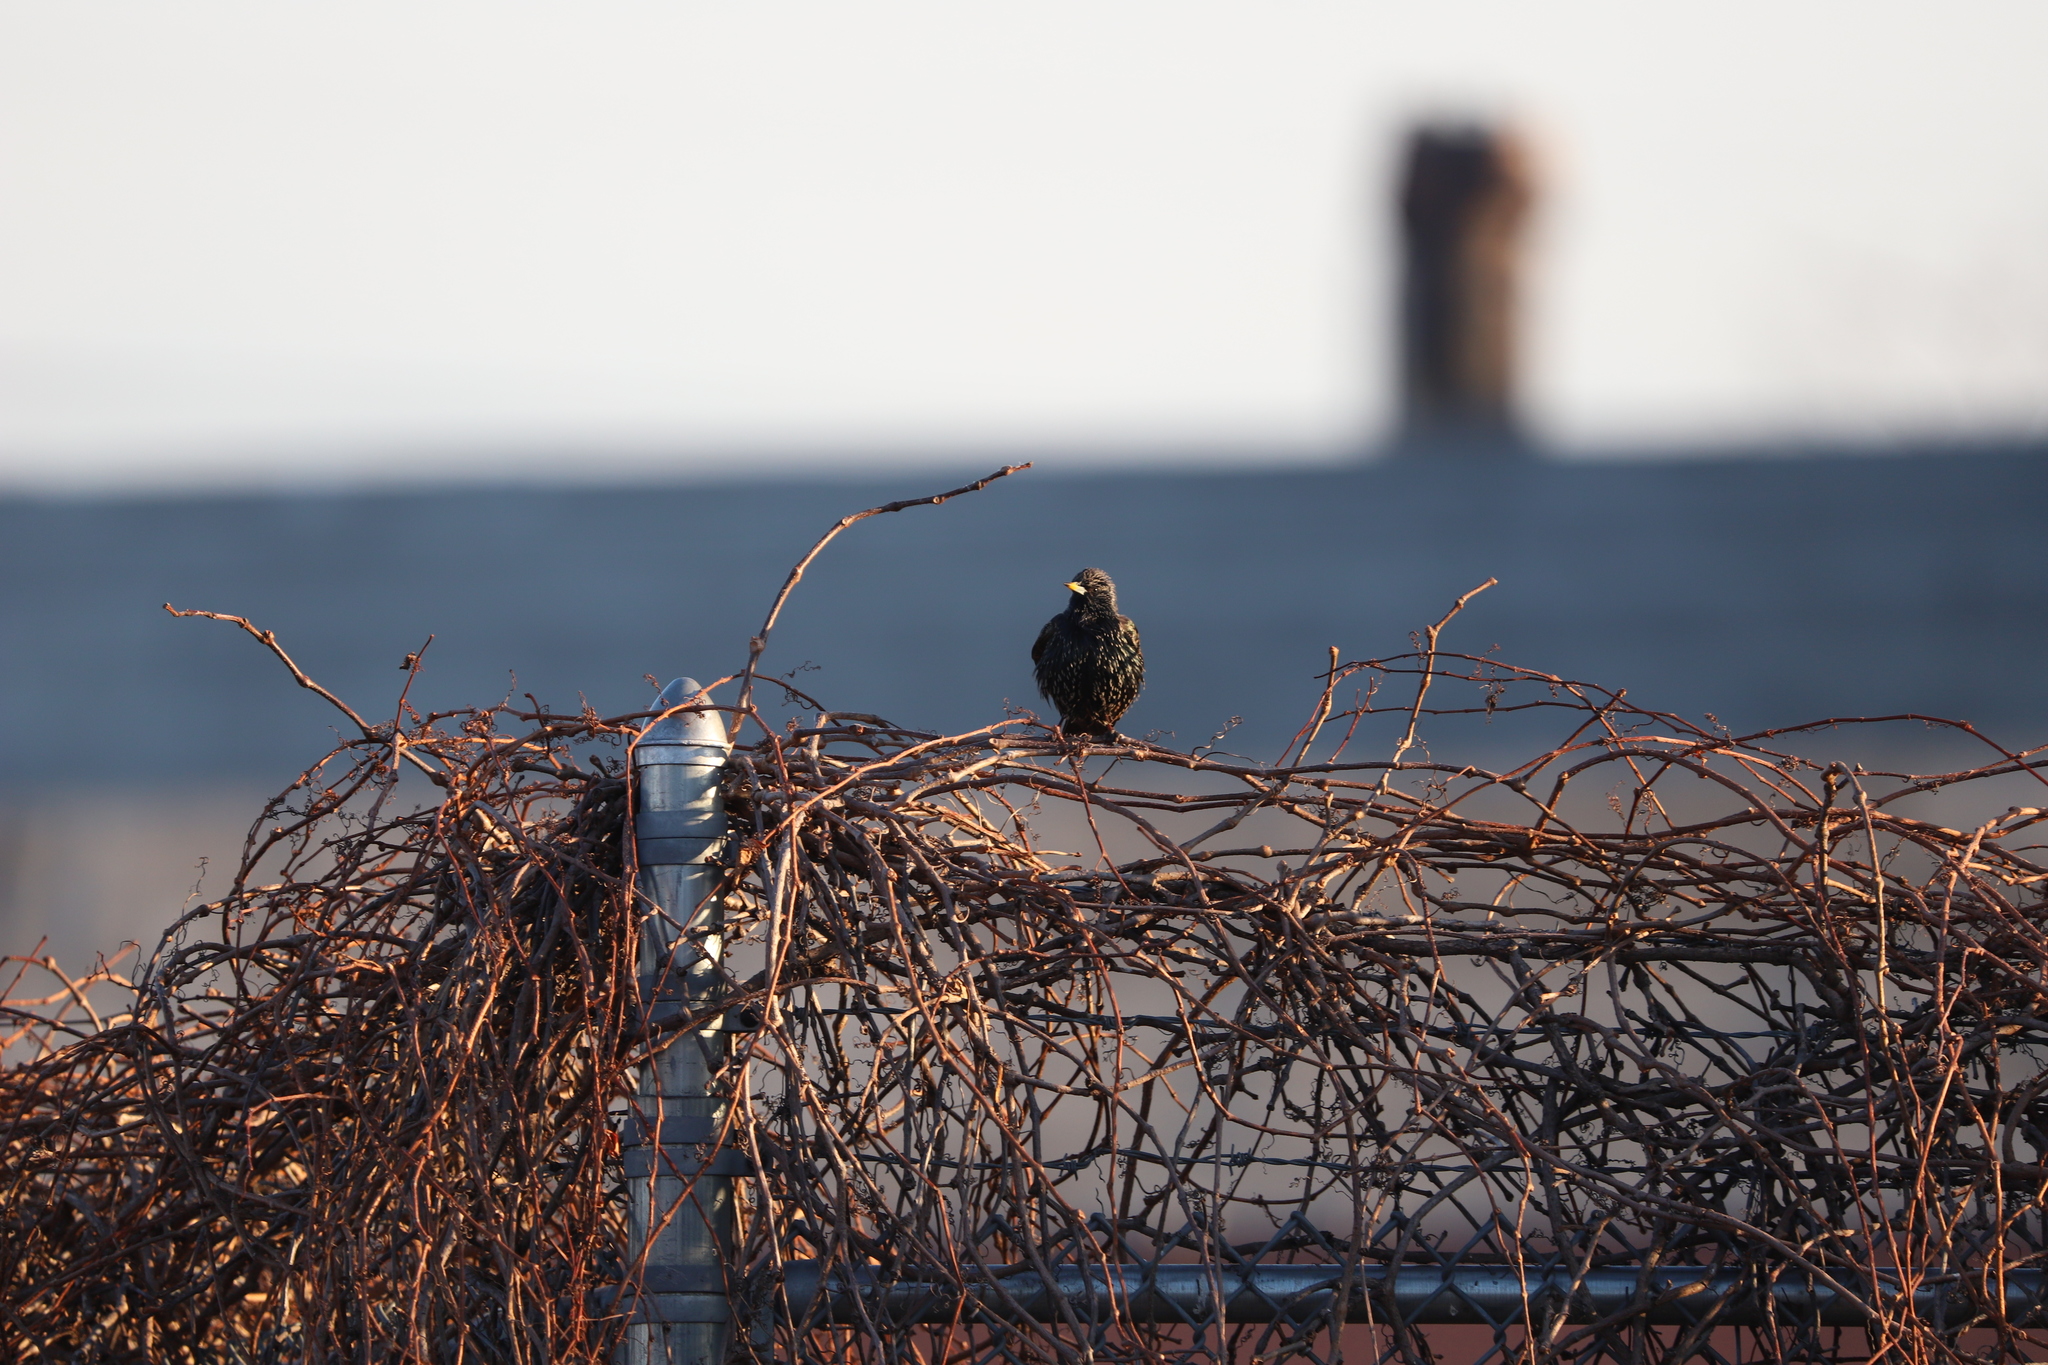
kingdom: Animalia
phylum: Chordata
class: Aves
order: Passeriformes
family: Sturnidae
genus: Sturnus
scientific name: Sturnus vulgaris
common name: Common starling
